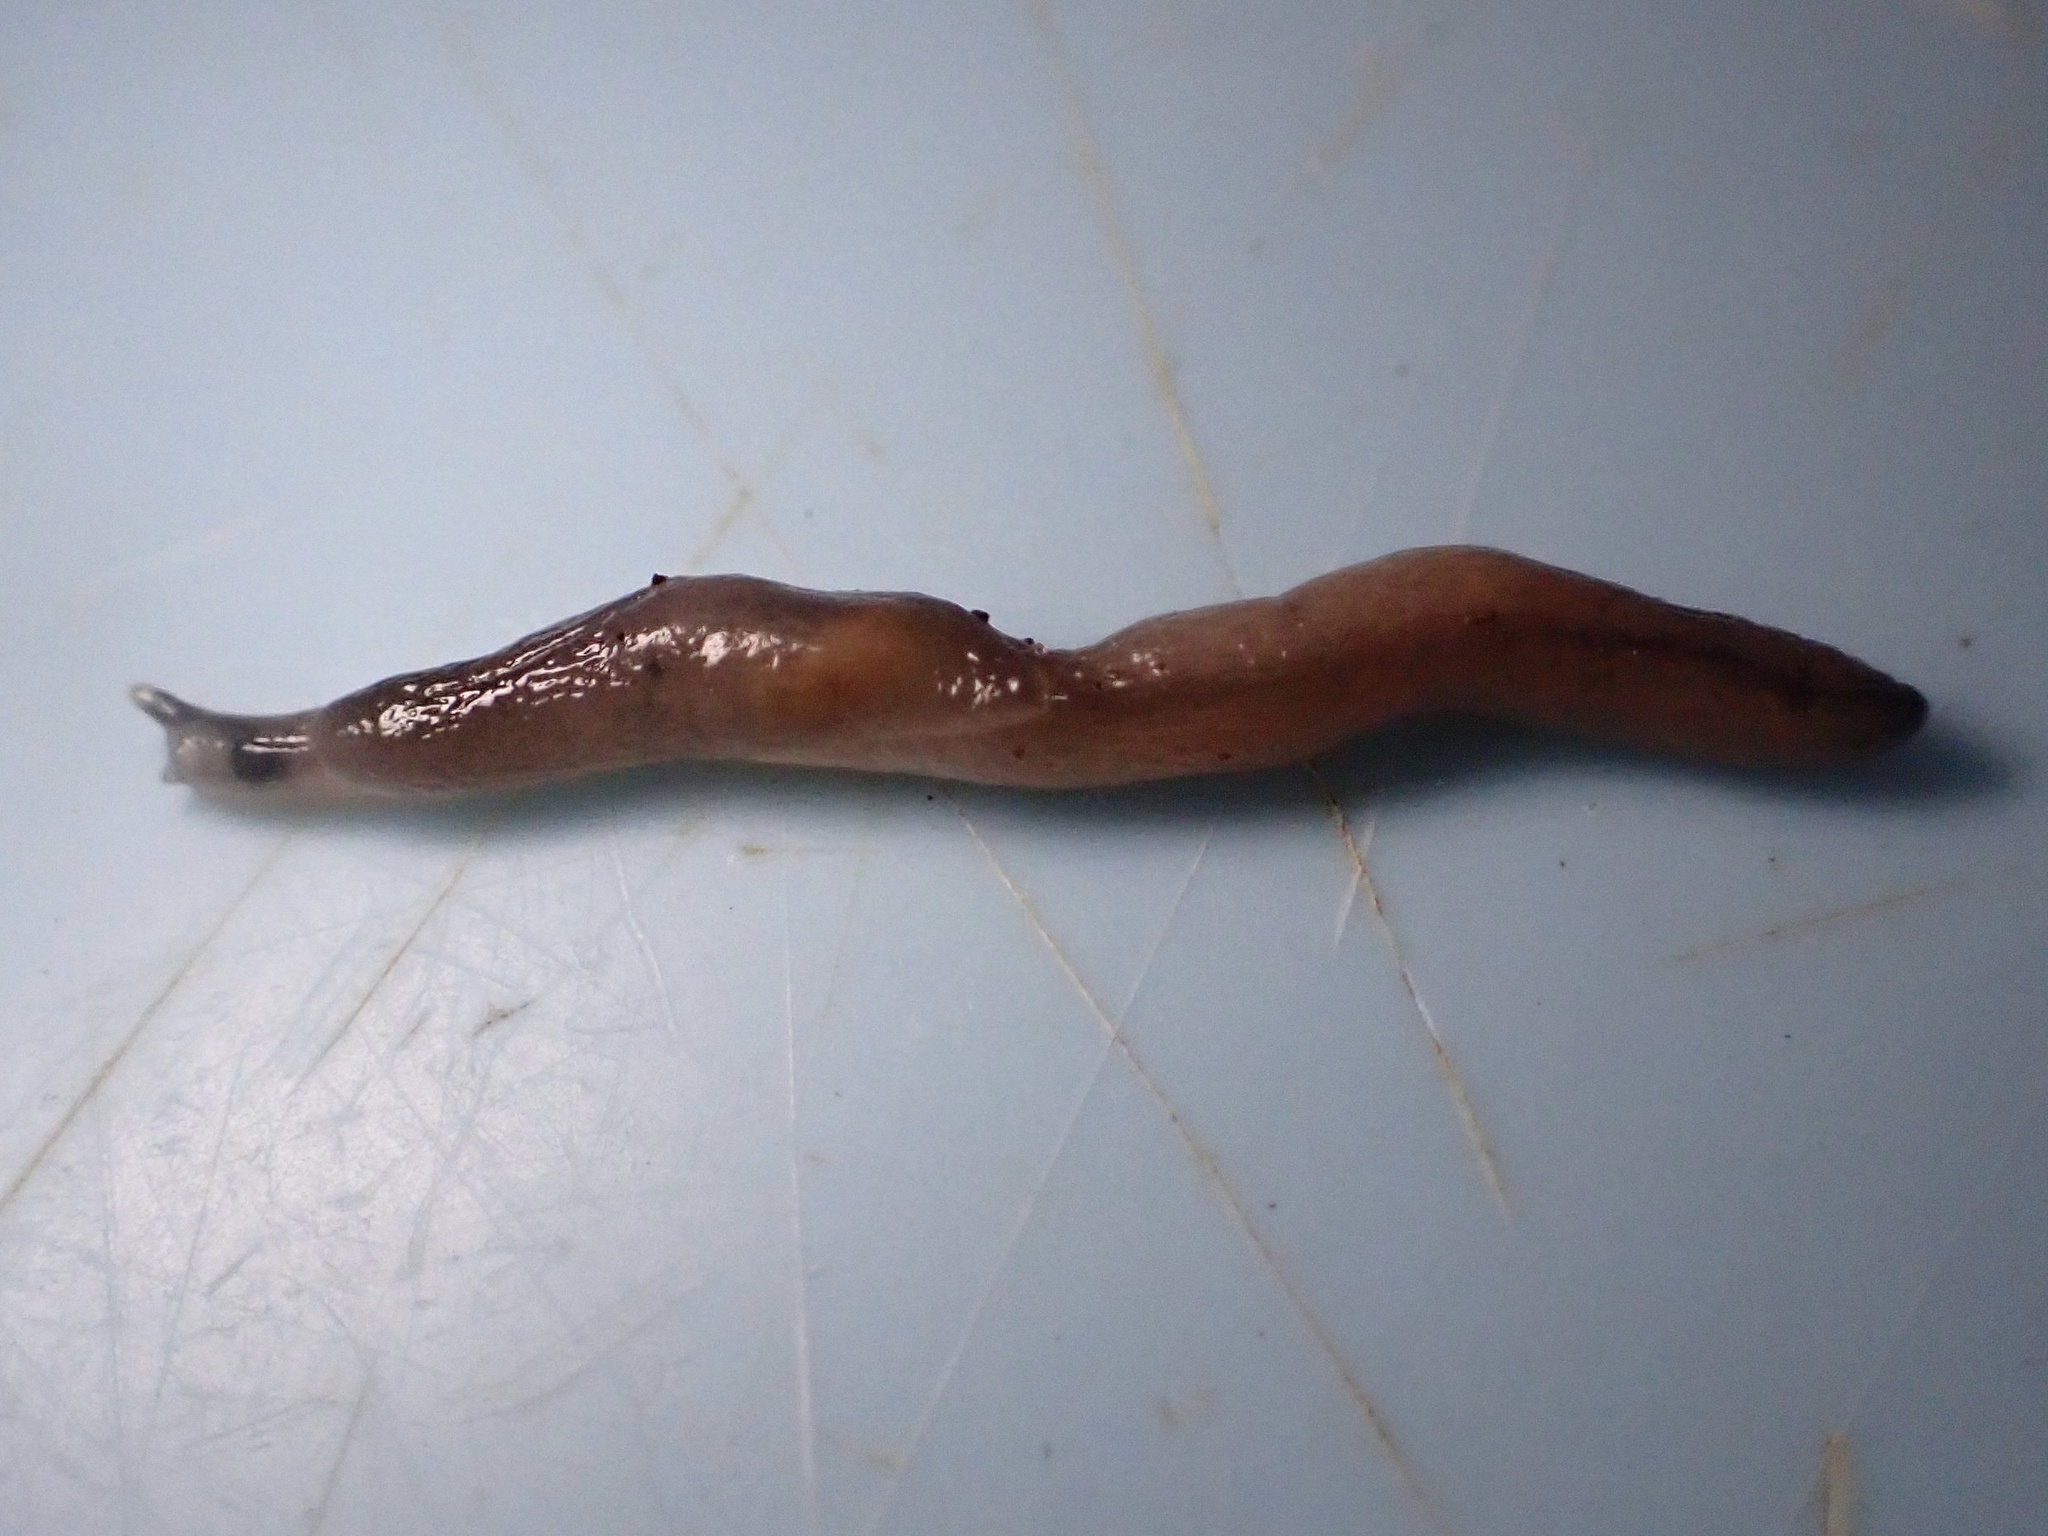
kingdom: Animalia
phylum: Mollusca
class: Gastropoda
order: Stylommatophora
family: Boettgerillidae
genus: Boettgerilla
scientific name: Boettgerilla pallens
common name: Worm slug
